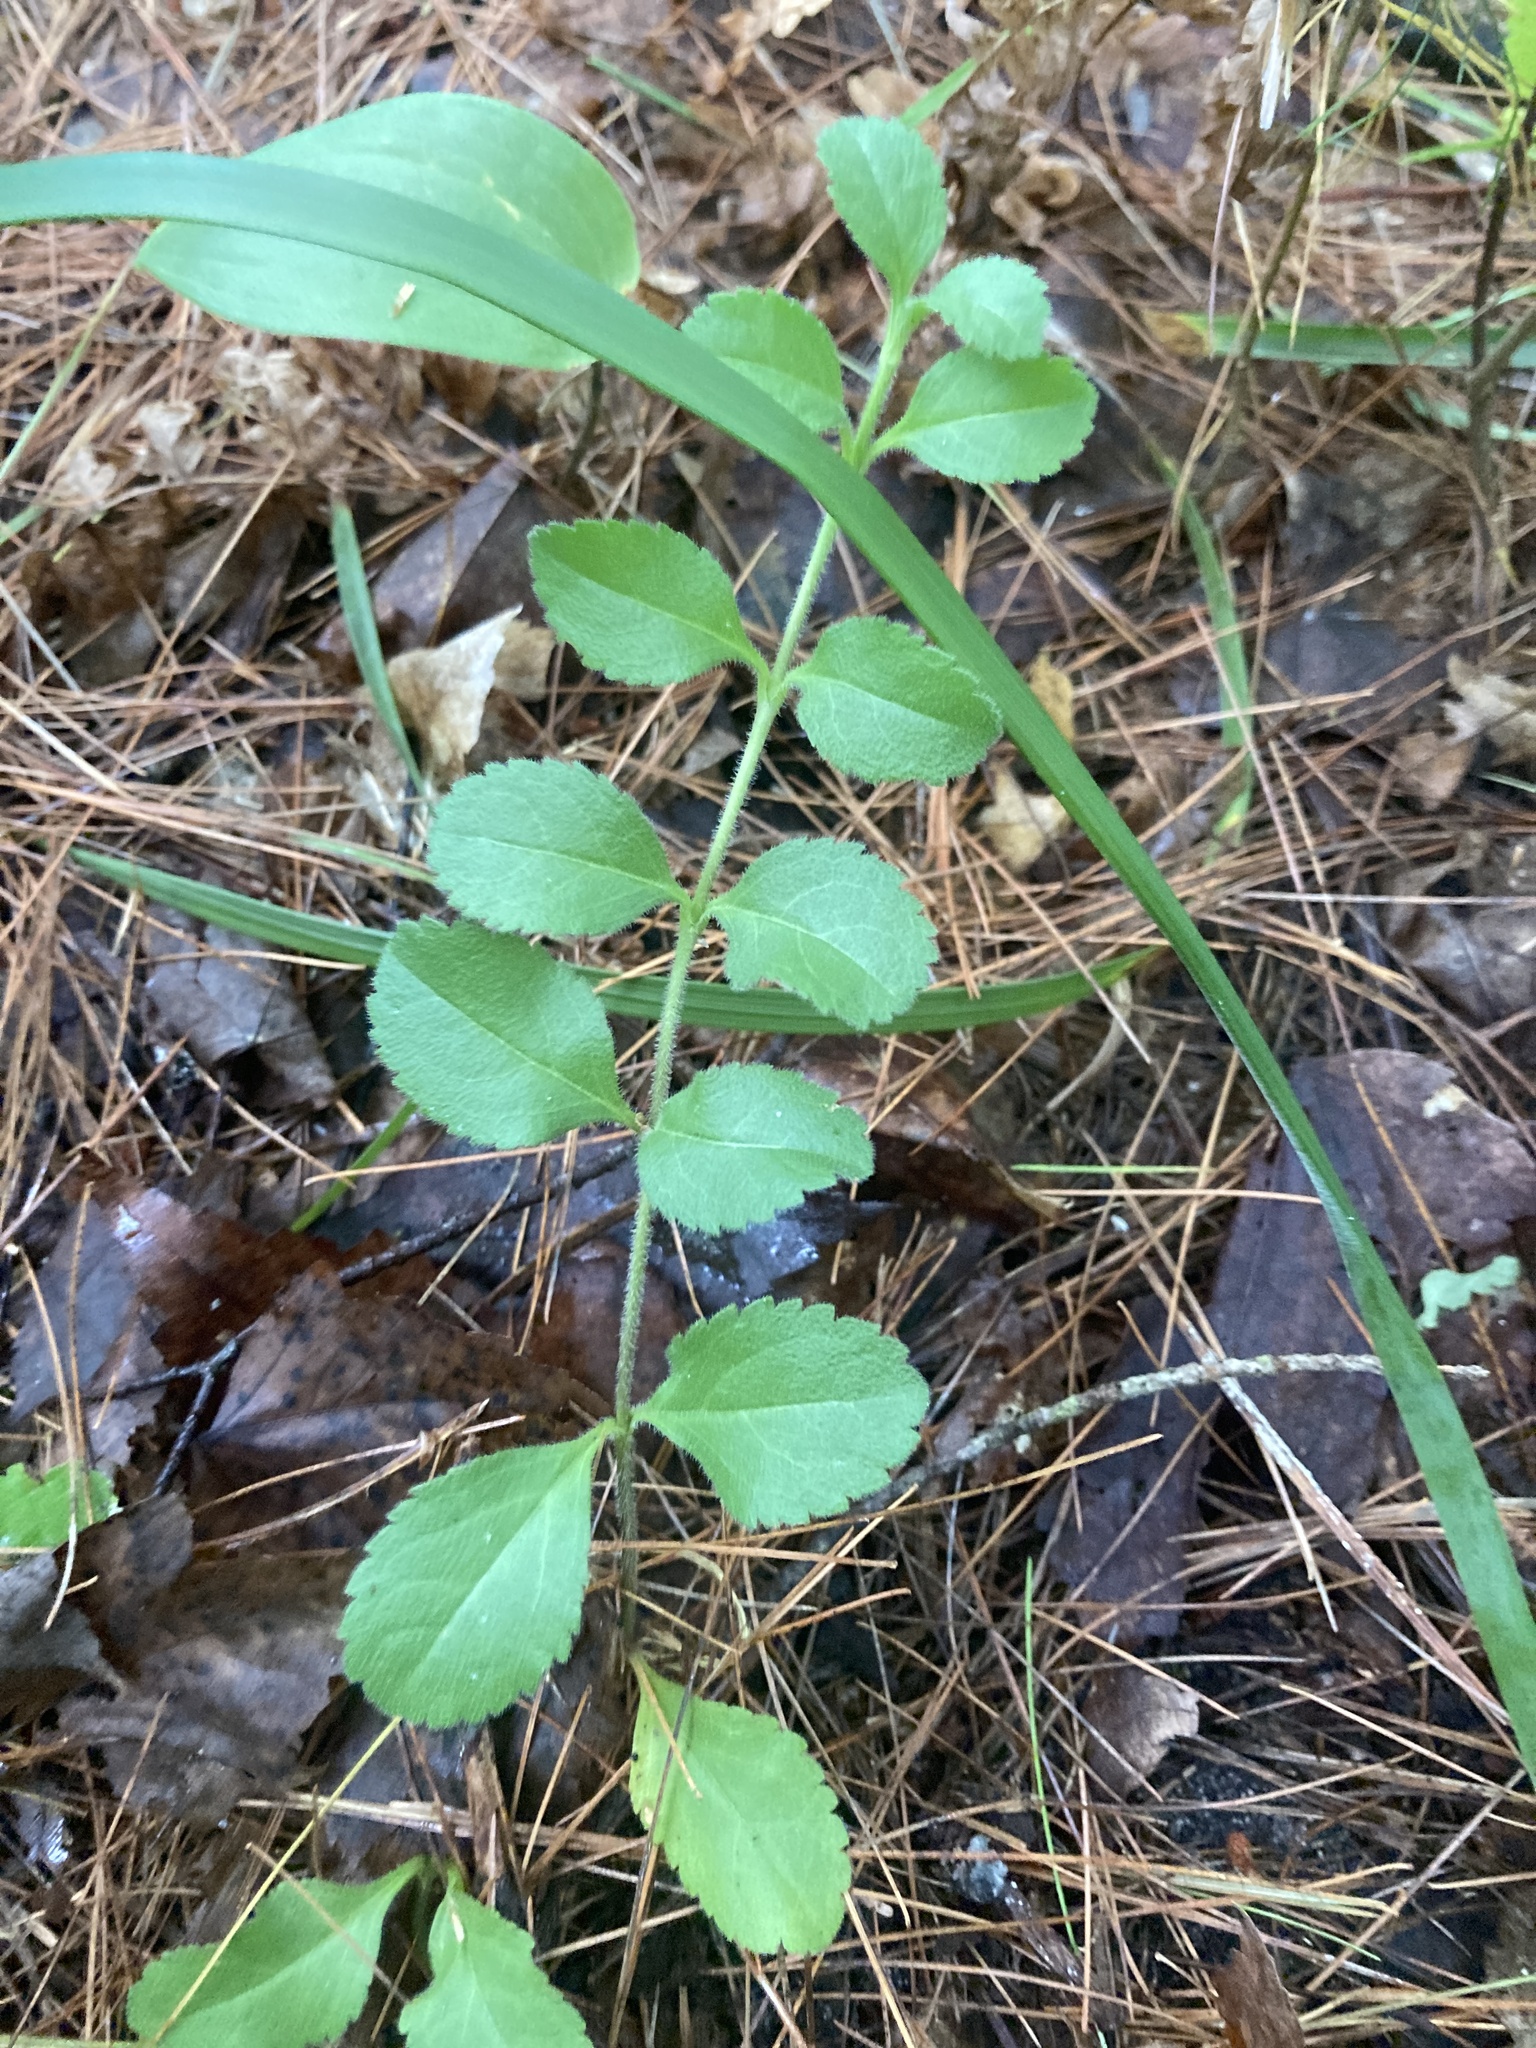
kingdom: Plantae
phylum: Tracheophyta
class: Magnoliopsida
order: Lamiales
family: Plantaginaceae
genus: Veronica
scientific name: Veronica officinalis
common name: Common speedwell
